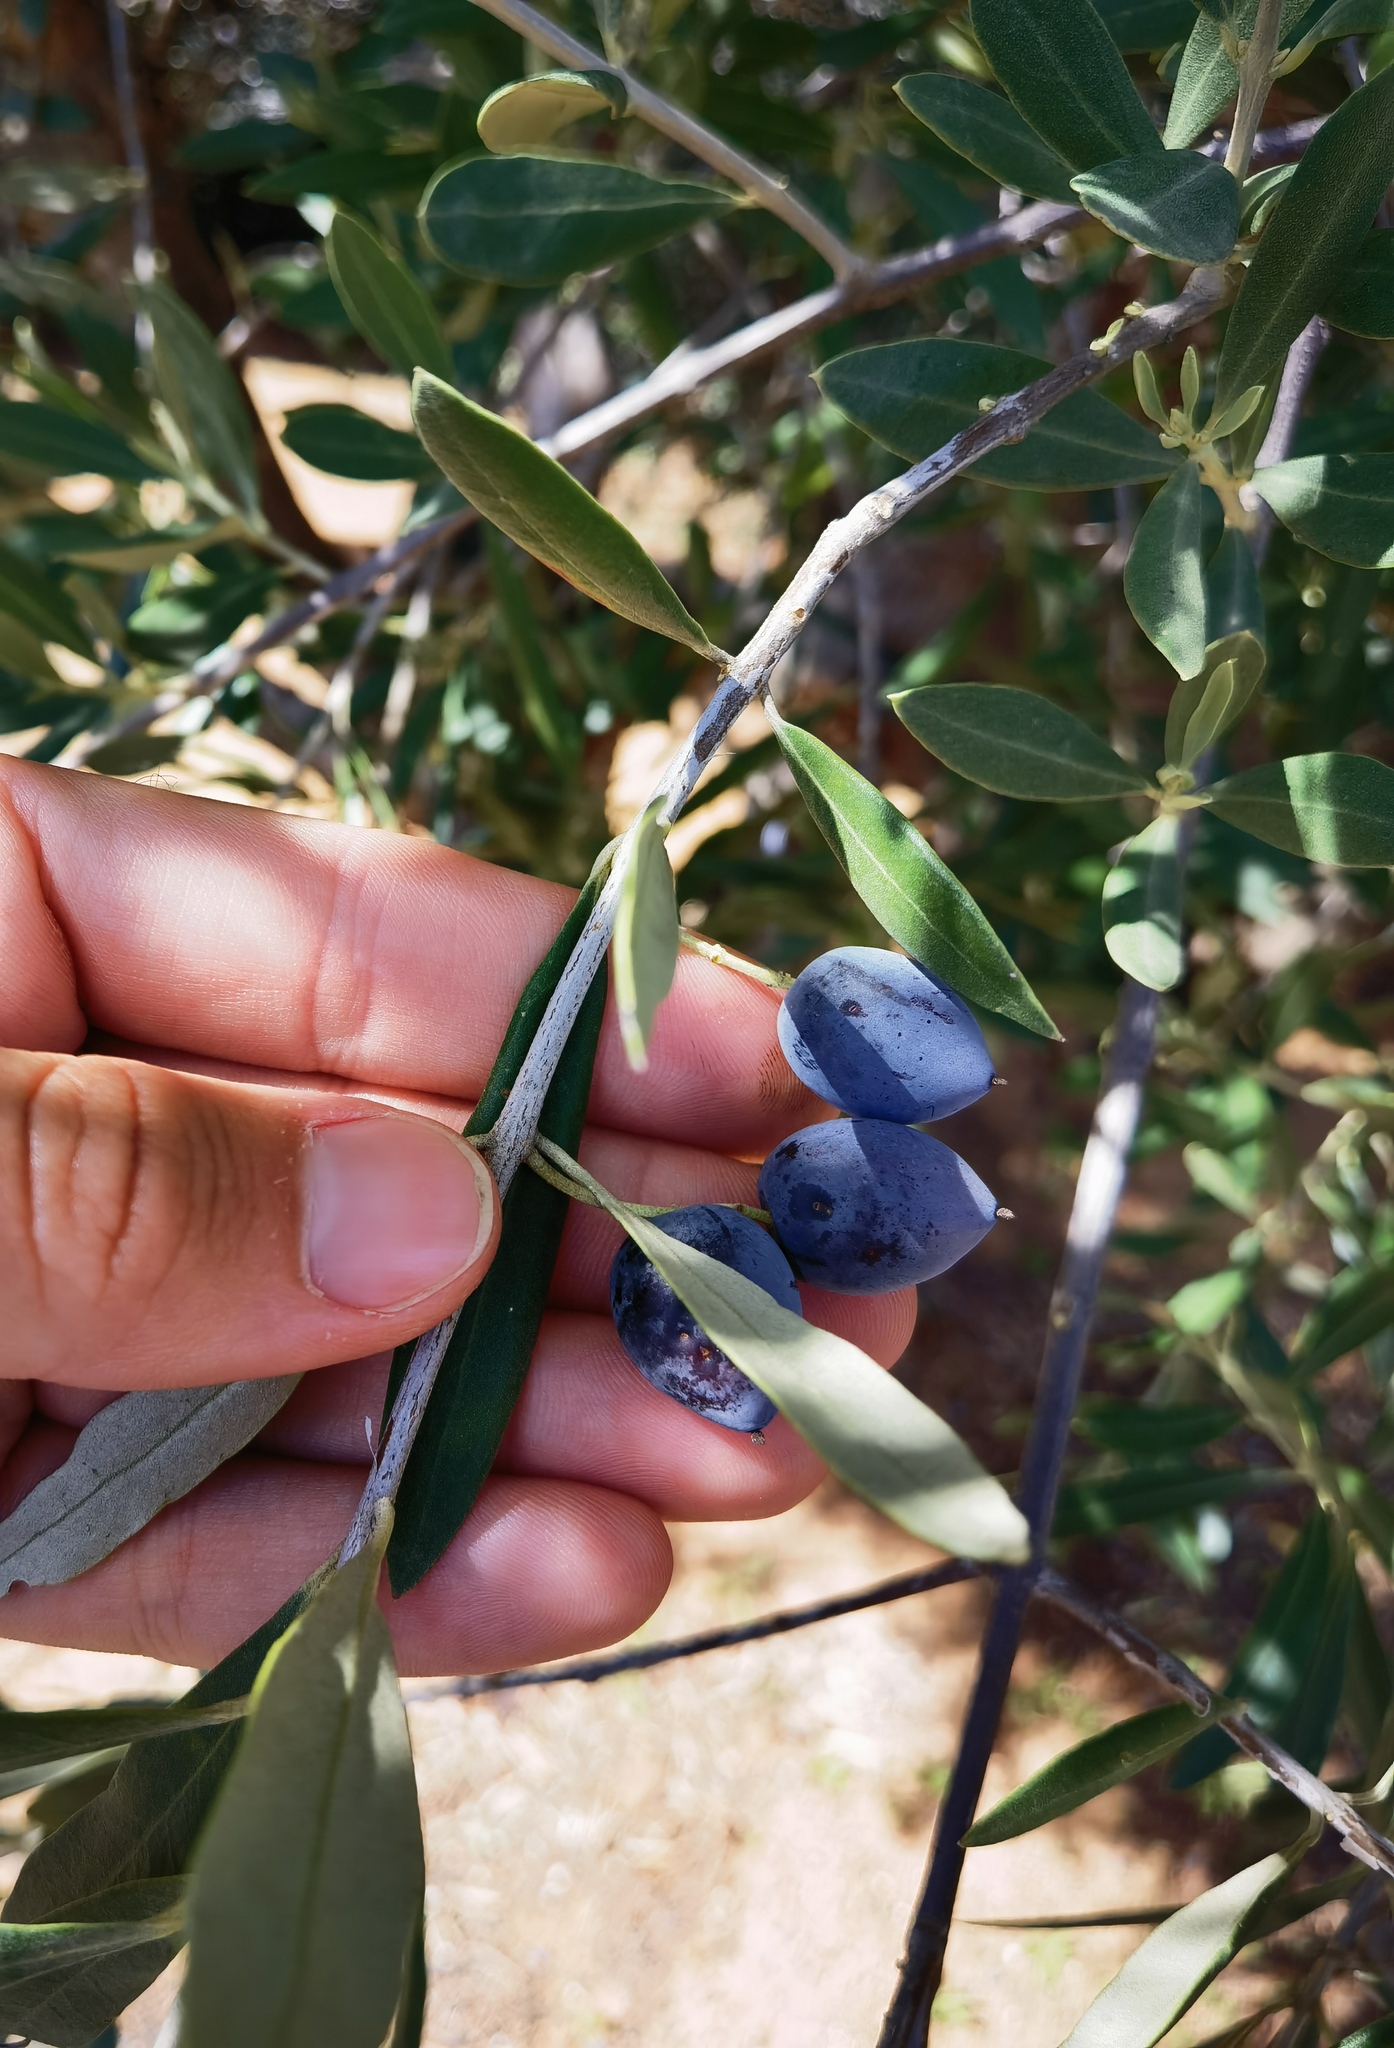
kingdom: Plantae
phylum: Tracheophyta
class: Magnoliopsida
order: Lamiales
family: Oleaceae
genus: Olea
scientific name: Olea europaea
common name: Olive
